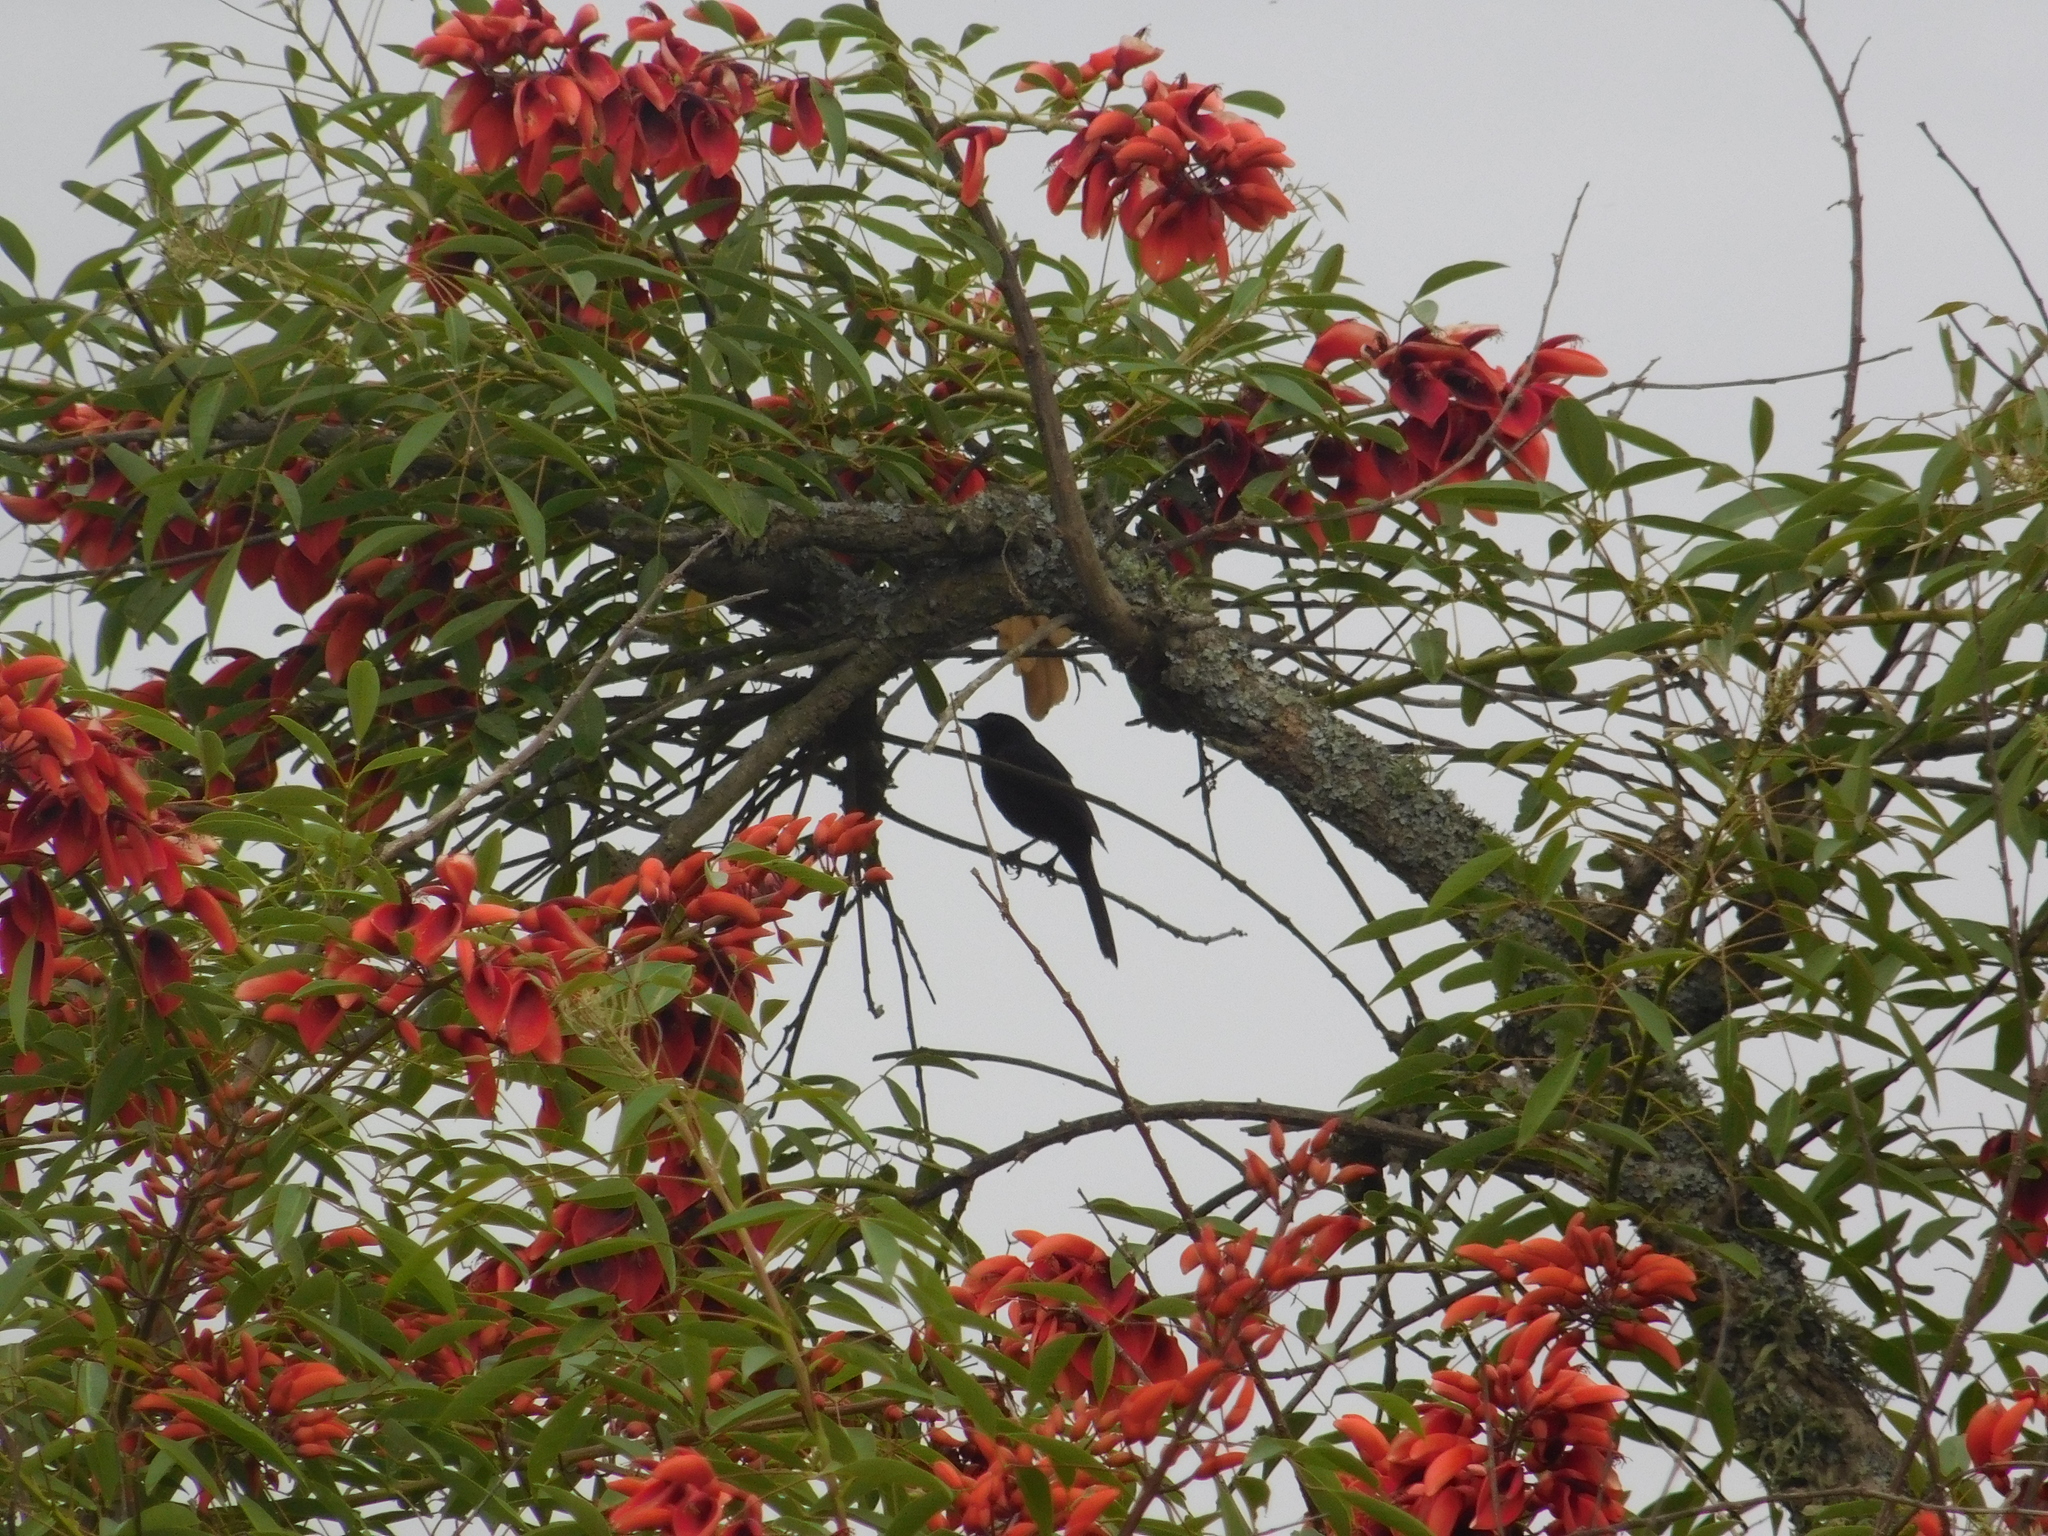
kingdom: Animalia
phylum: Chordata
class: Aves
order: Passeriformes
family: Icteridae
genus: Icterus
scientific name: Icterus cayanensis
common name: Epaulet oriole
